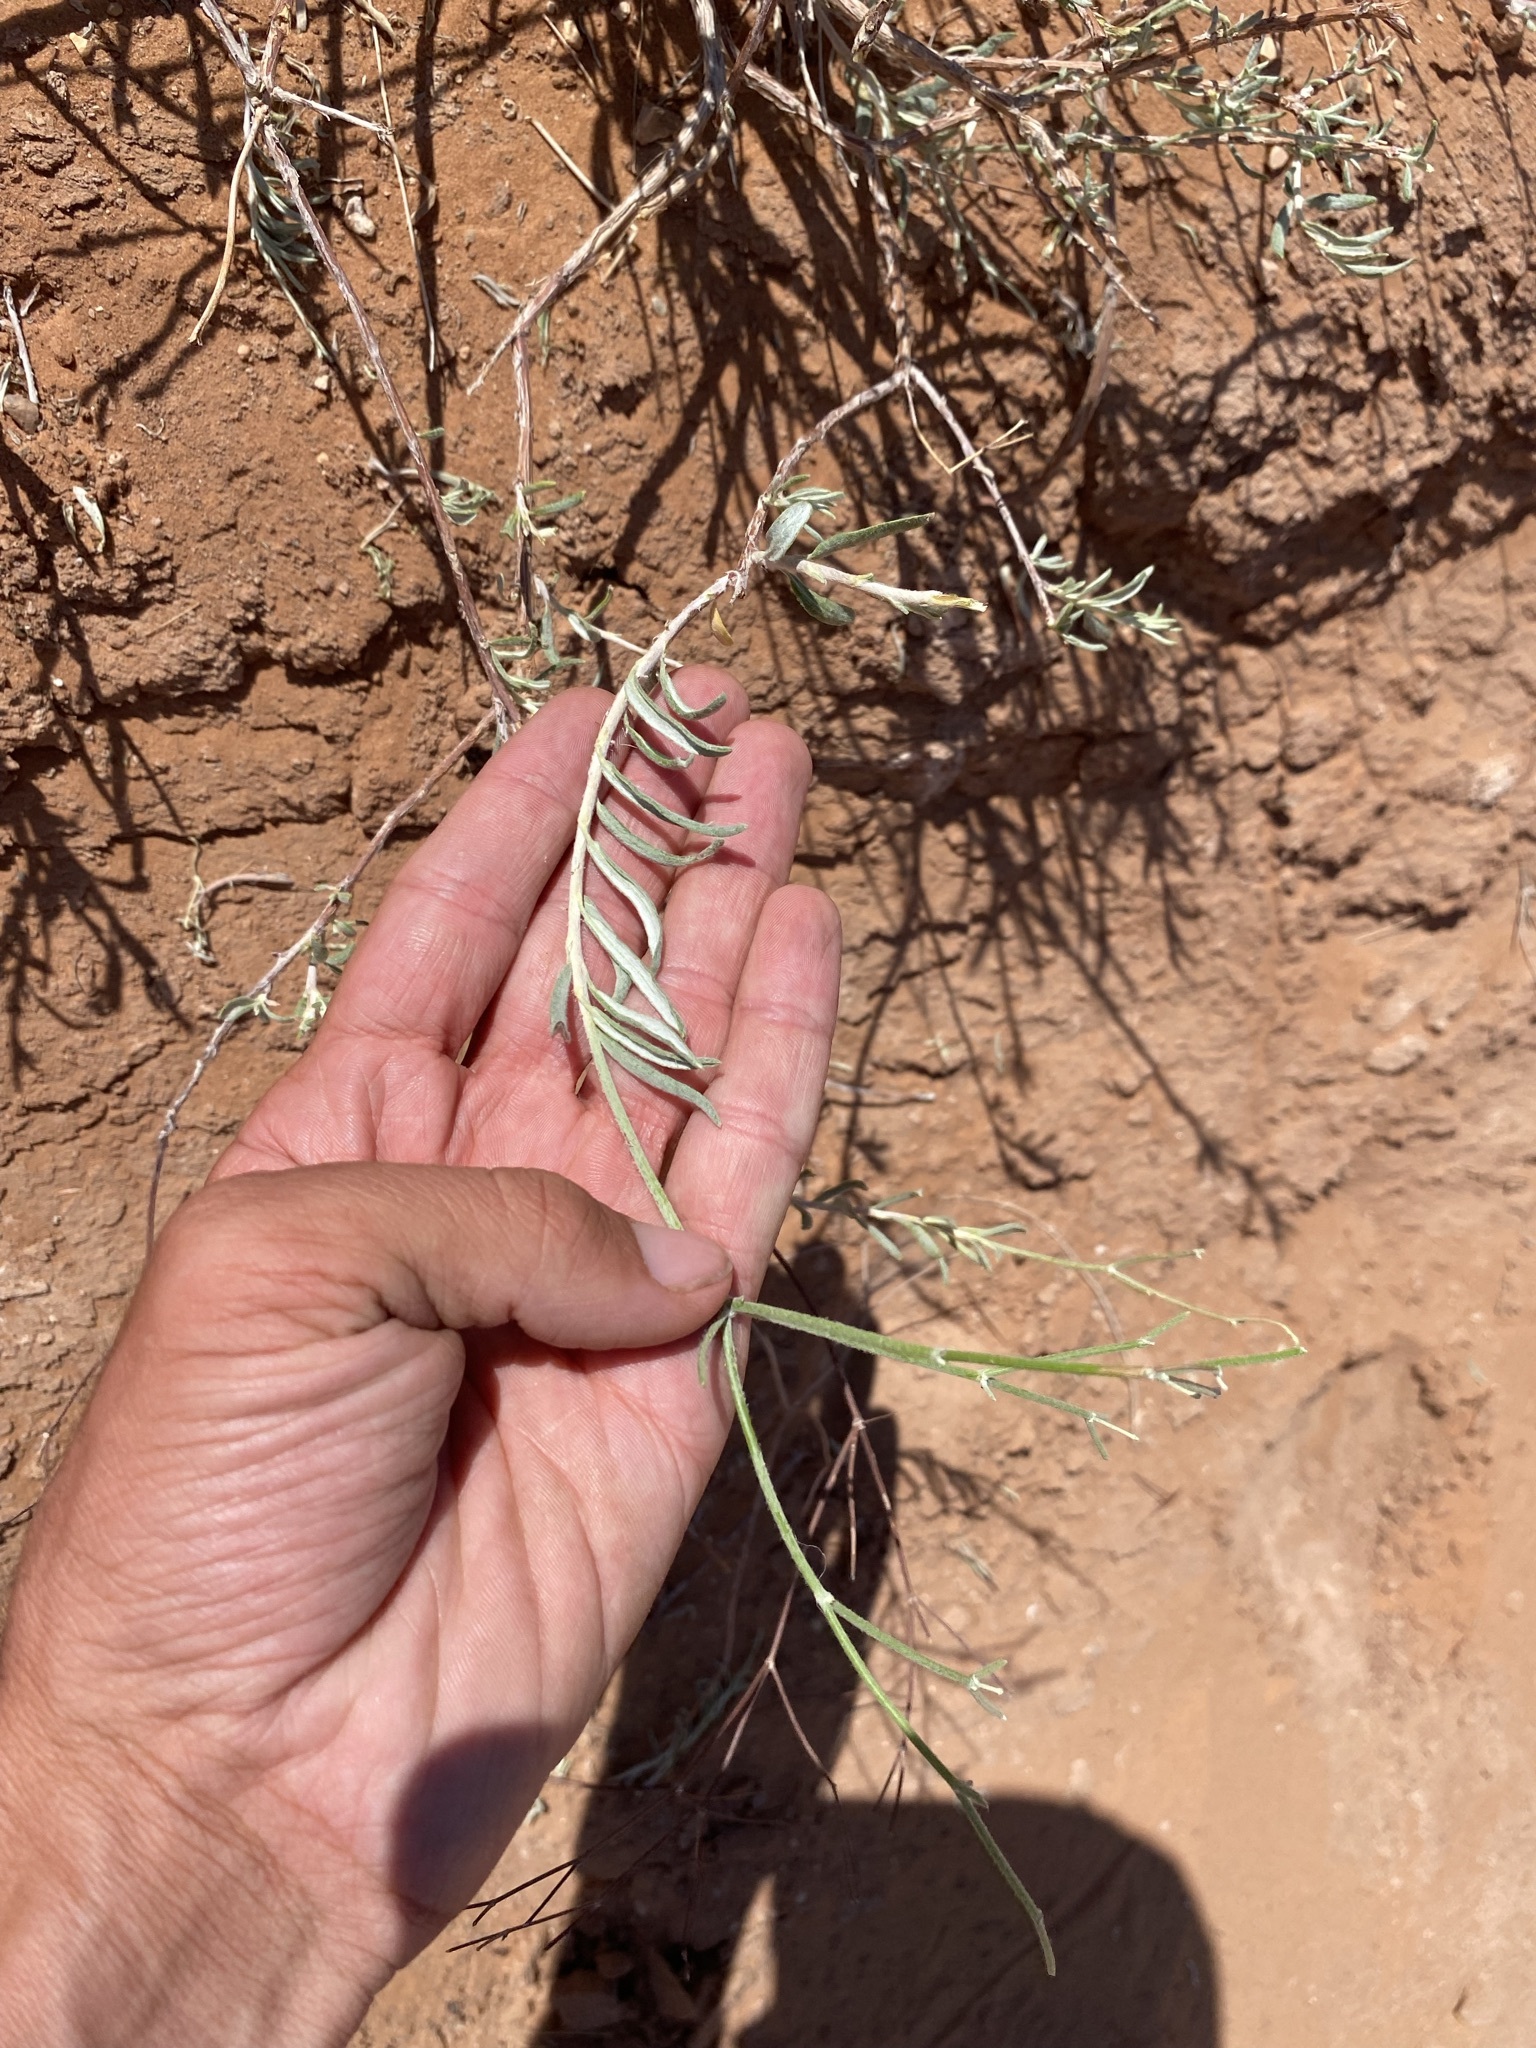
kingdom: Plantae
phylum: Tracheophyta
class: Magnoliopsida
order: Caryophyllales
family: Polygonaceae
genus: Eriogonum
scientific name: Eriogonum leptocladon
